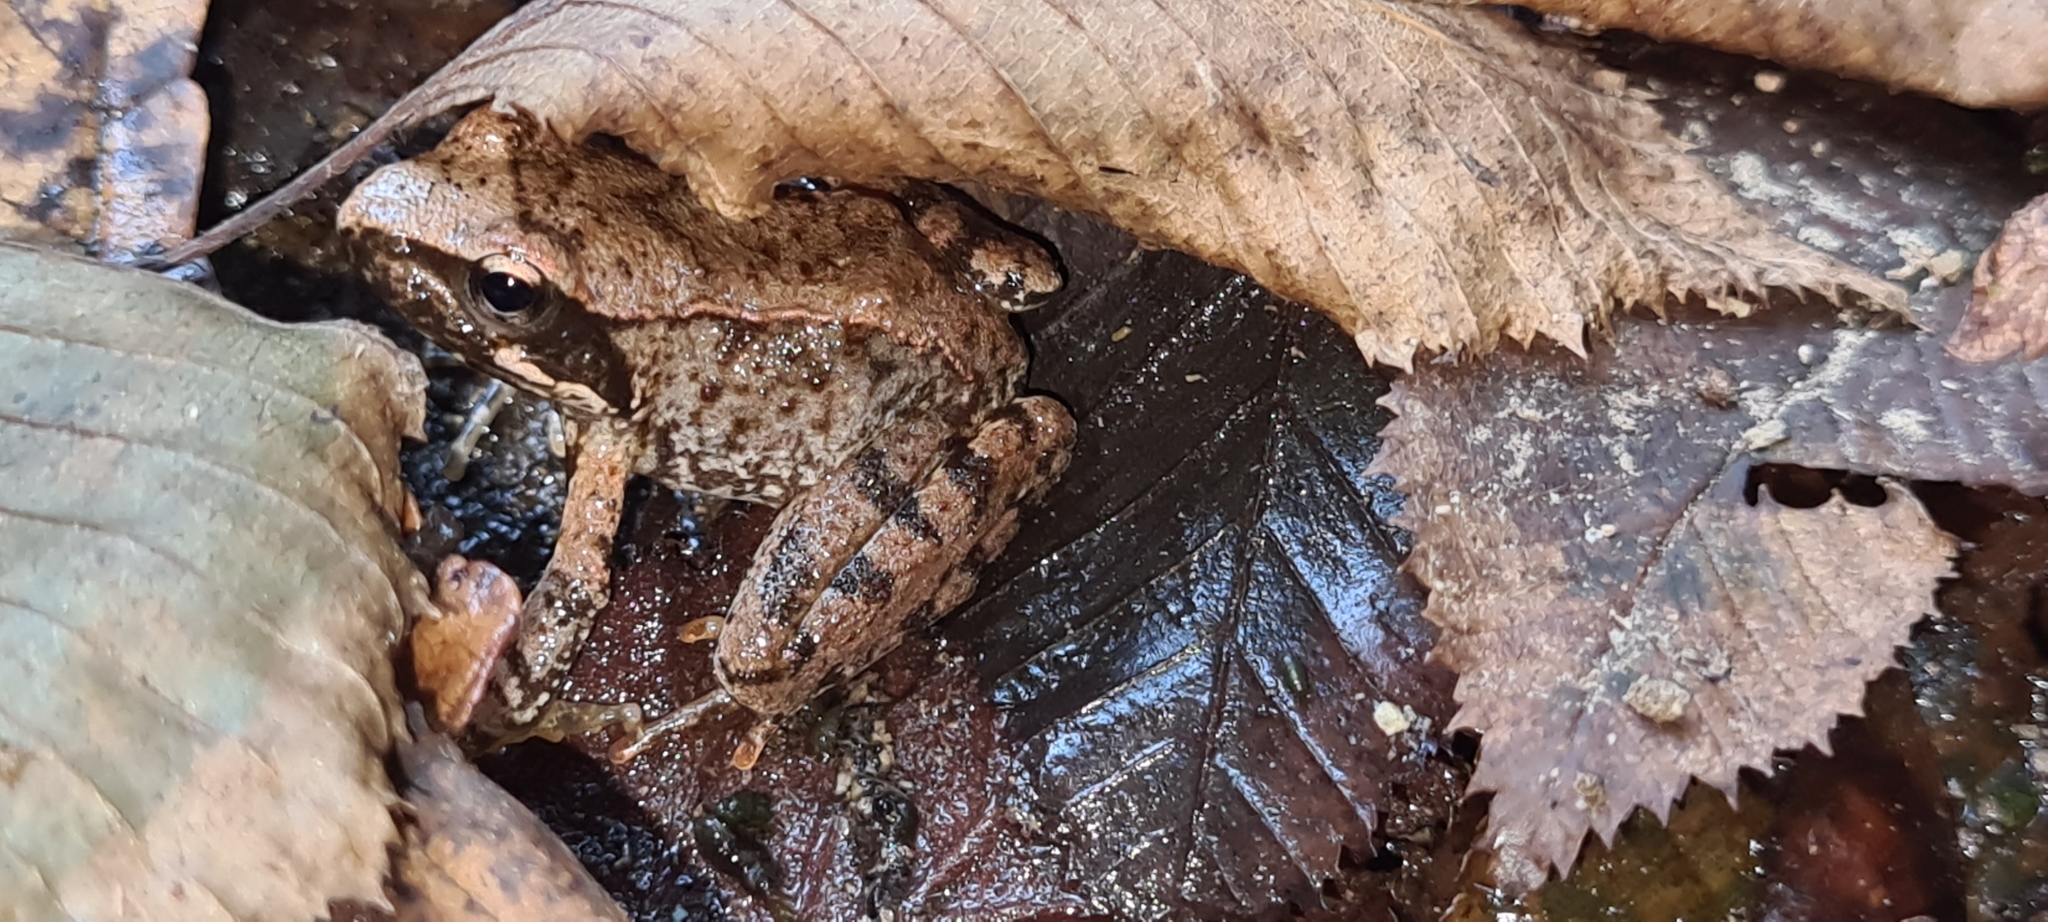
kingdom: Animalia
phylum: Chordata
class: Amphibia
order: Anura
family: Ranidae
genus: Rana
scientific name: Rana italica
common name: Italian stream frog
